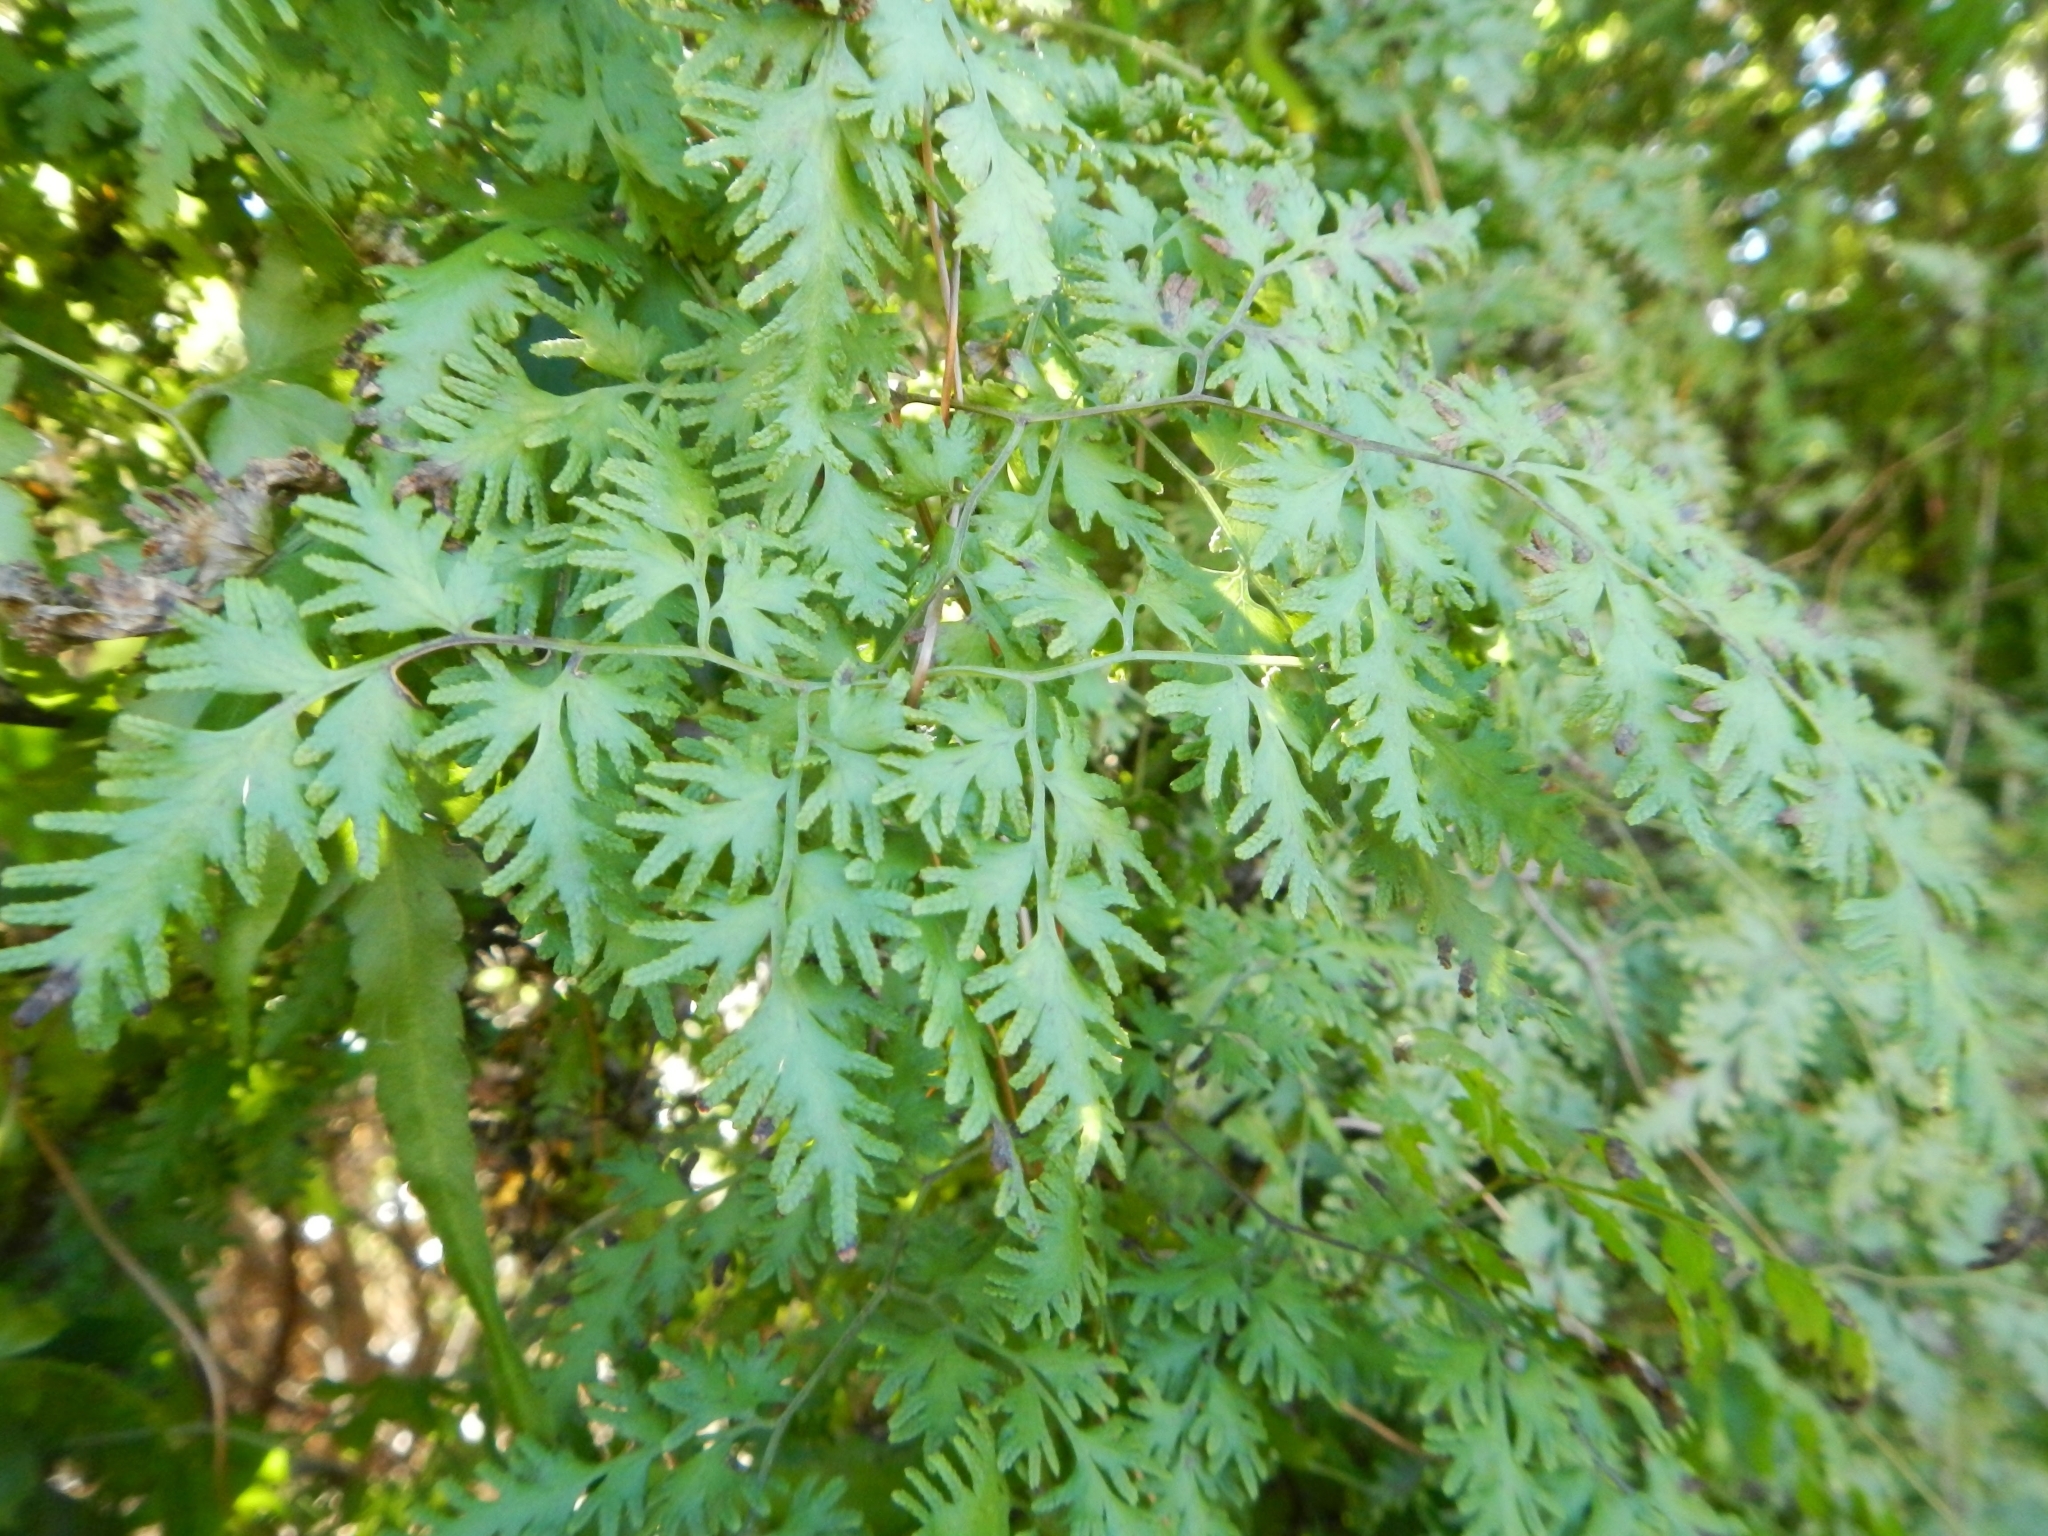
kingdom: Plantae
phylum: Tracheophyta
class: Polypodiopsida
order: Schizaeales
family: Lygodiaceae
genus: Lygodium
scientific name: Lygodium japonicum
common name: Japanese climbing fern
